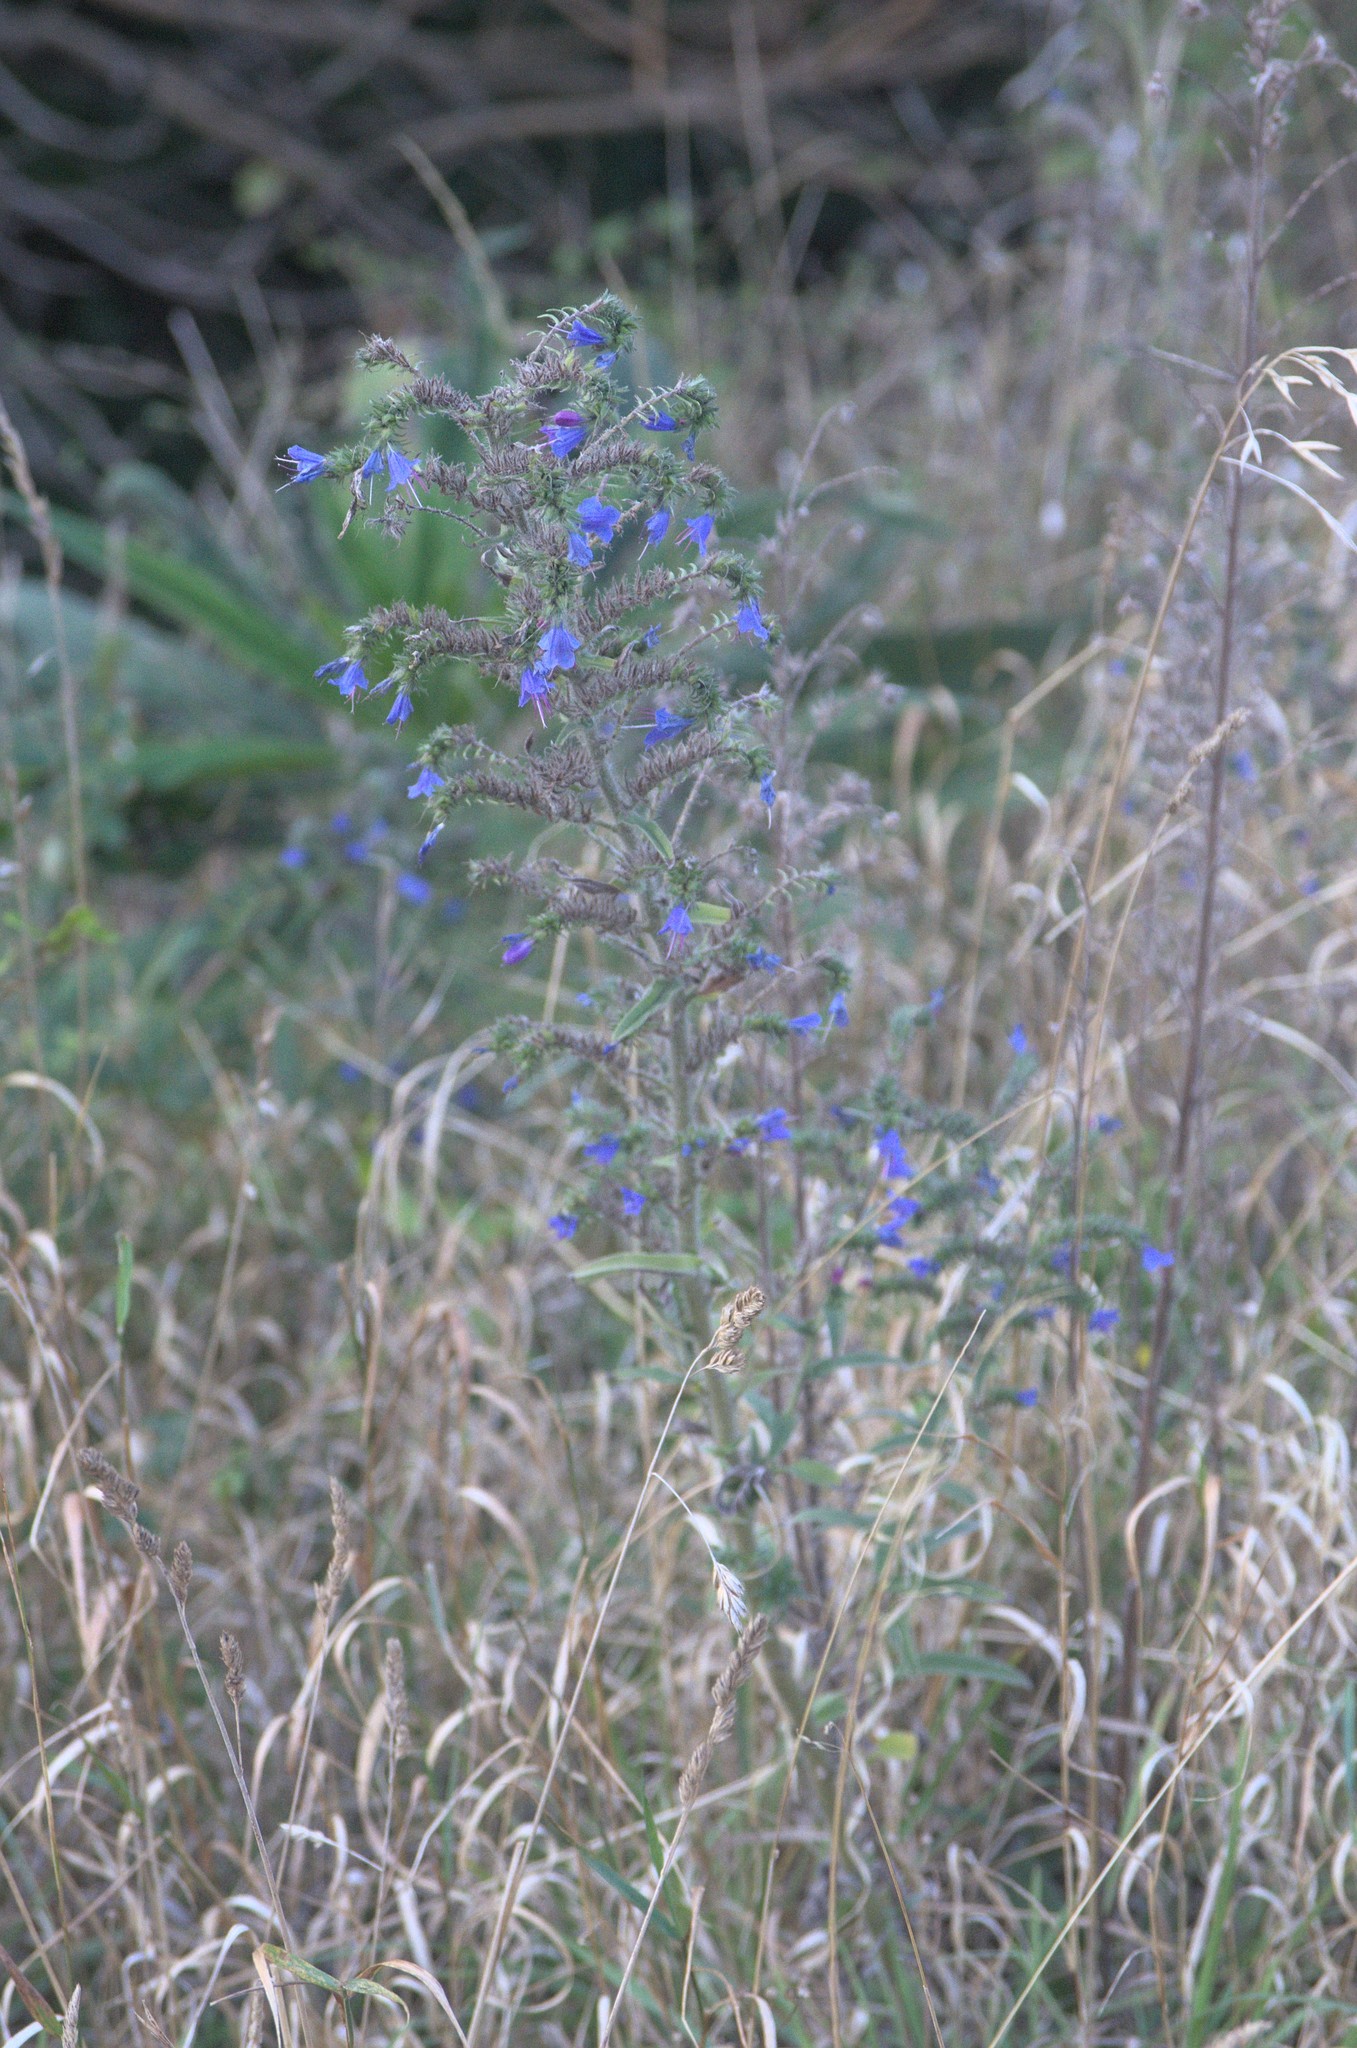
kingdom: Plantae
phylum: Tracheophyta
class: Magnoliopsida
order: Boraginales
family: Boraginaceae
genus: Echium
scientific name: Echium vulgare
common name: Common viper's bugloss
